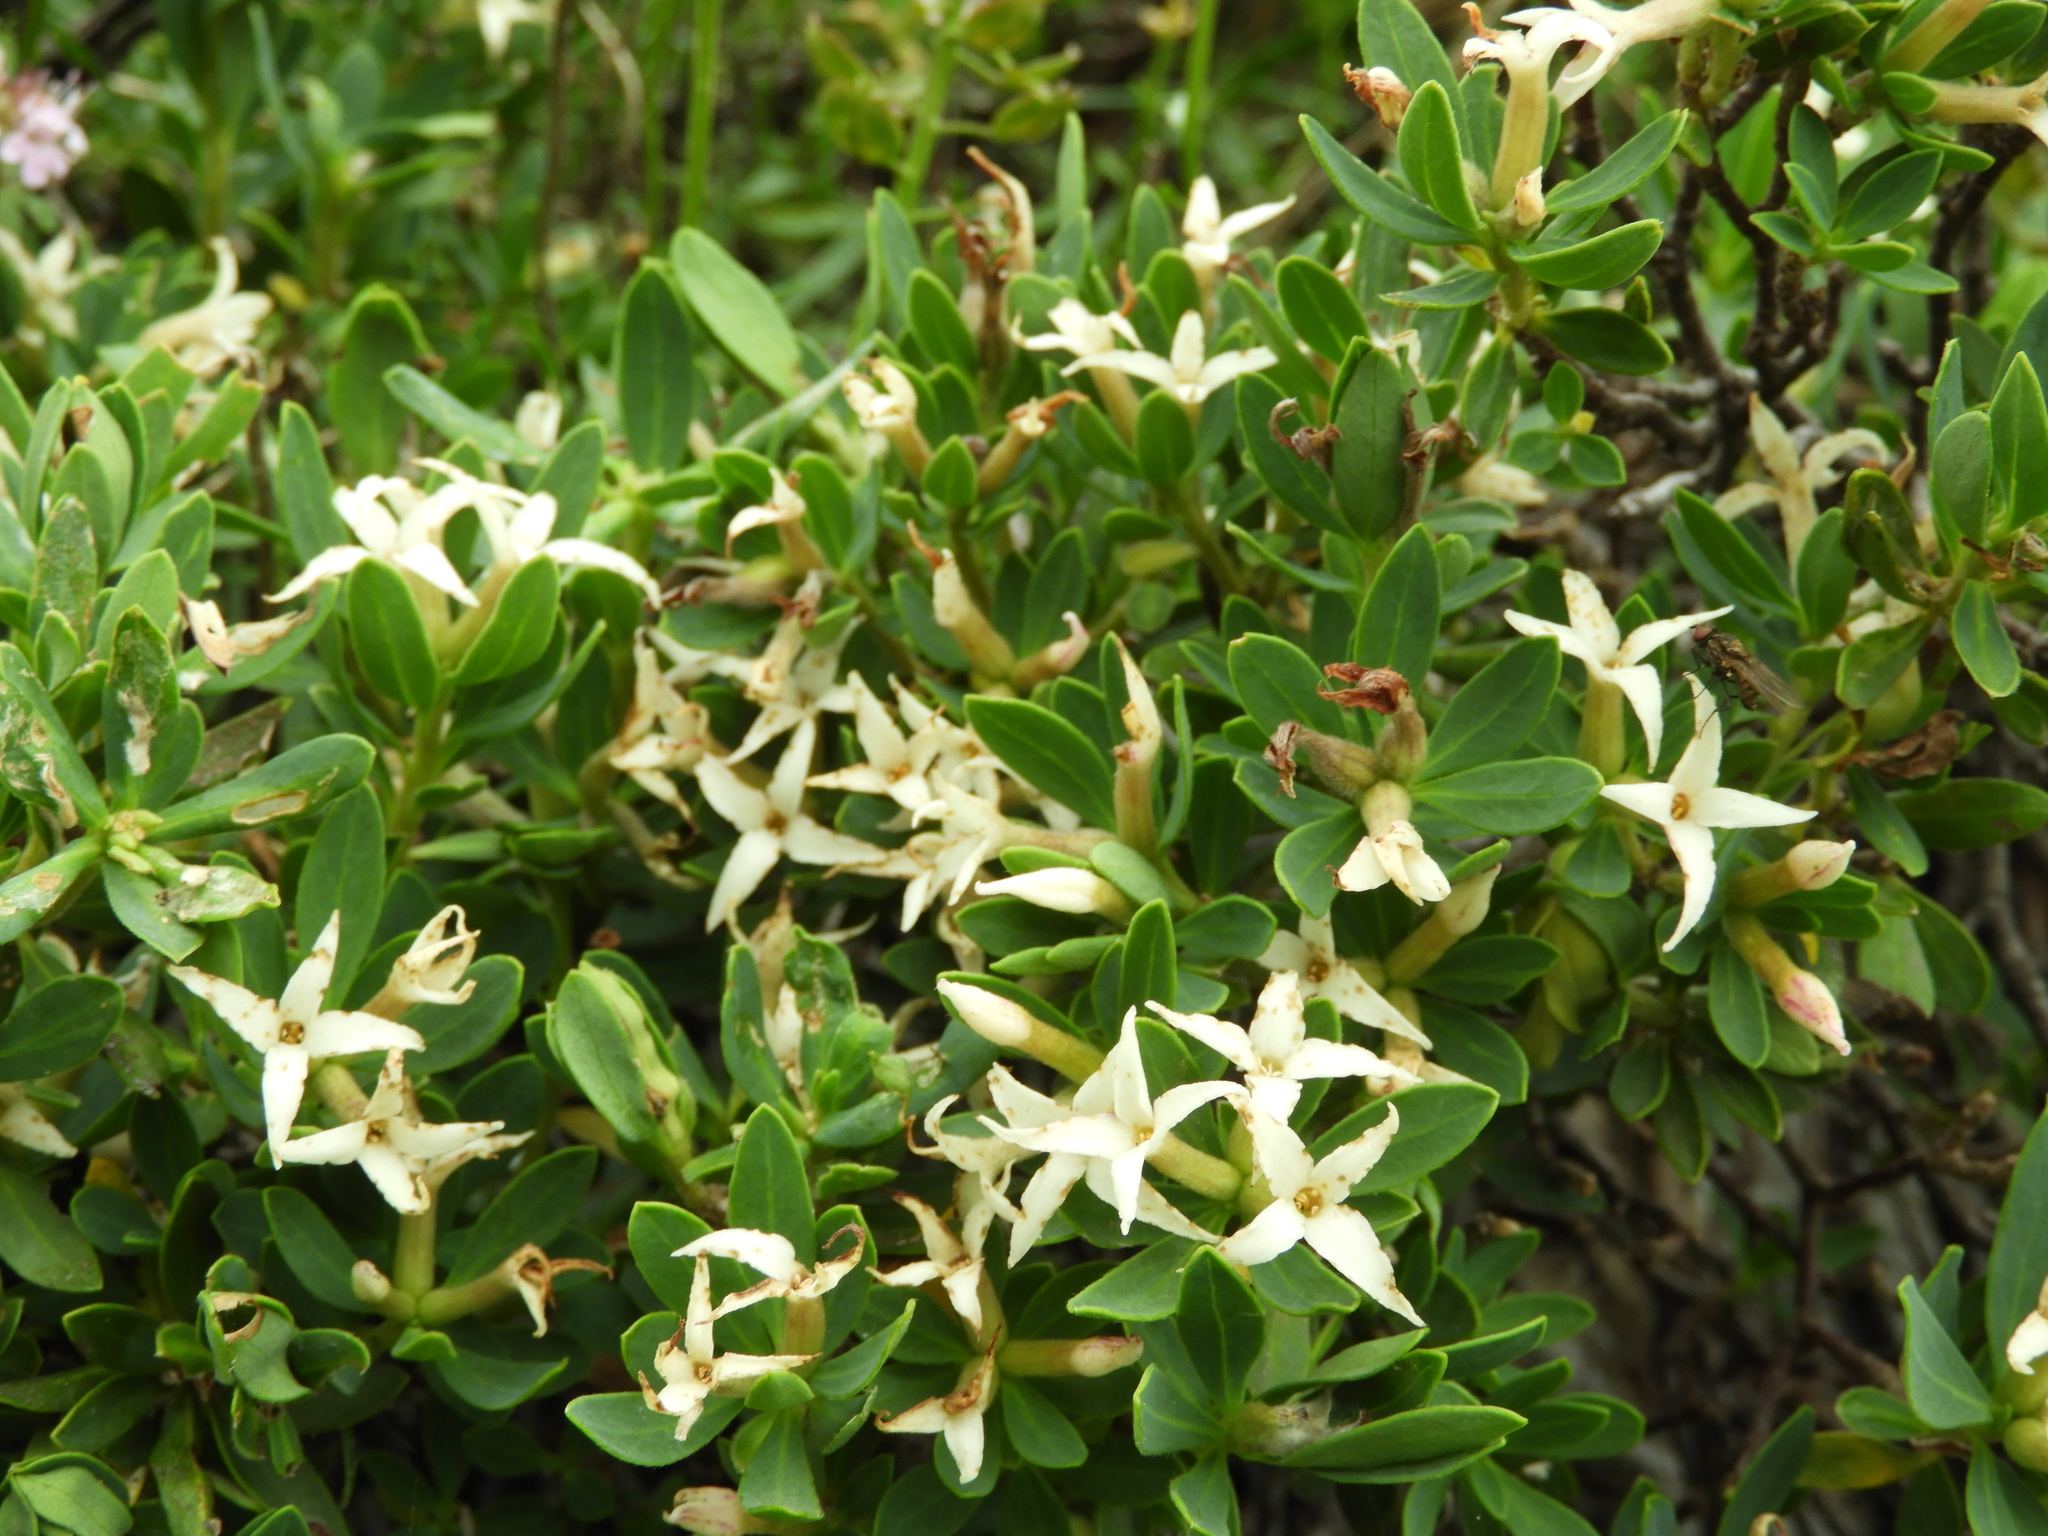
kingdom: Plantae
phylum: Tracheophyta
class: Magnoliopsida
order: Malvales
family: Thymelaeaceae
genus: Daphne
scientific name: Daphne oleoides
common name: Spurge-olive
